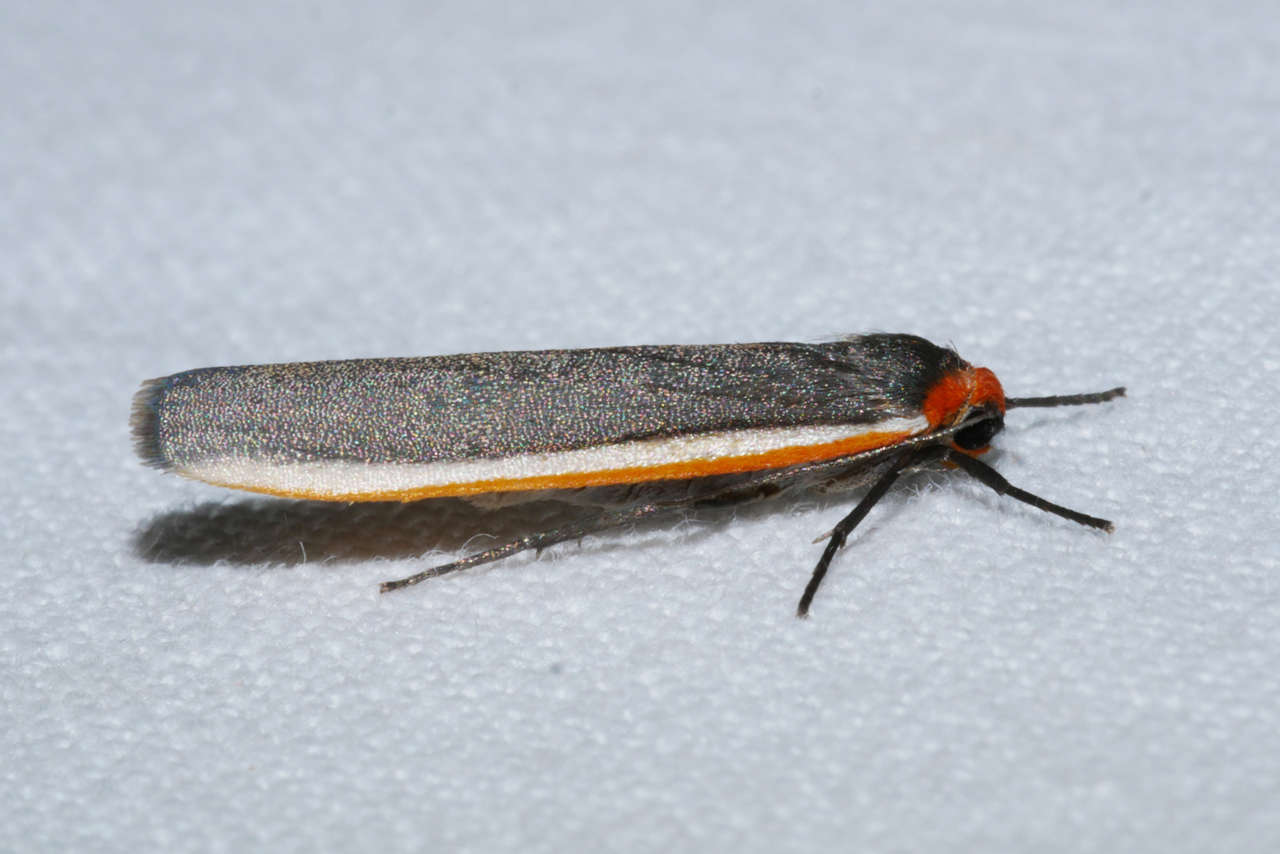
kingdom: Animalia
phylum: Arthropoda
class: Insecta
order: Lepidoptera
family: Erebidae
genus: Palaeosia
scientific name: Palaeosia bicosta
